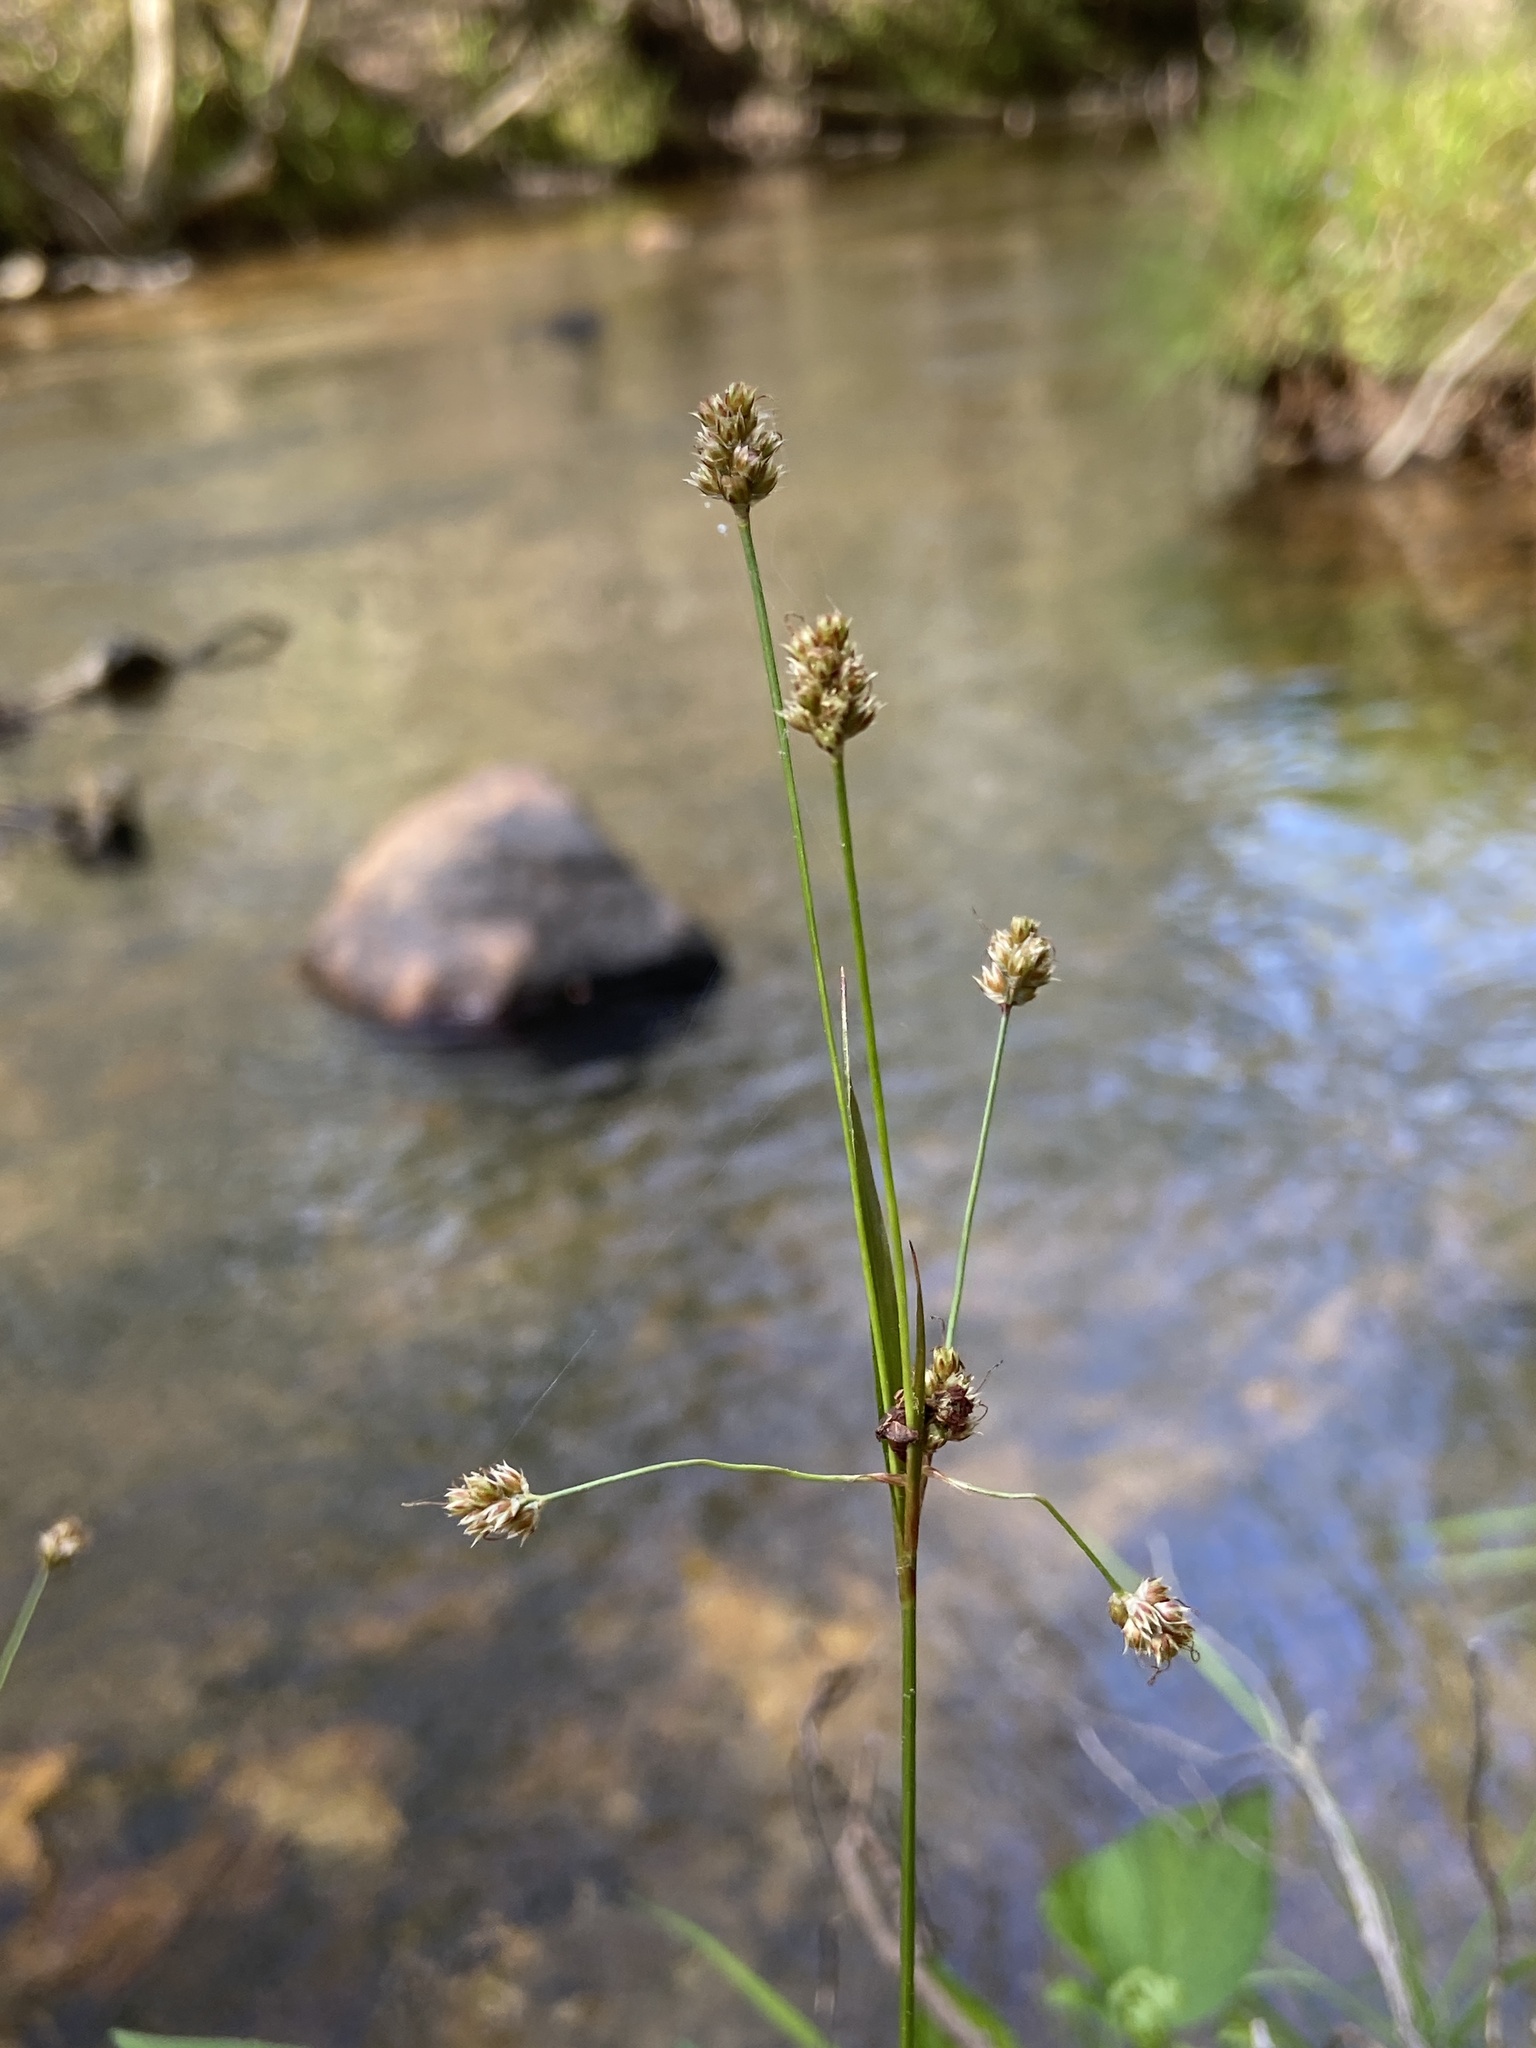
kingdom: Plantae
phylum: Tracheophyta
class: Liliopsida
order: Poales
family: Juncaceae
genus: Luzula
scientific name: Luzula echinata
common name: Hedgehog woodrush
